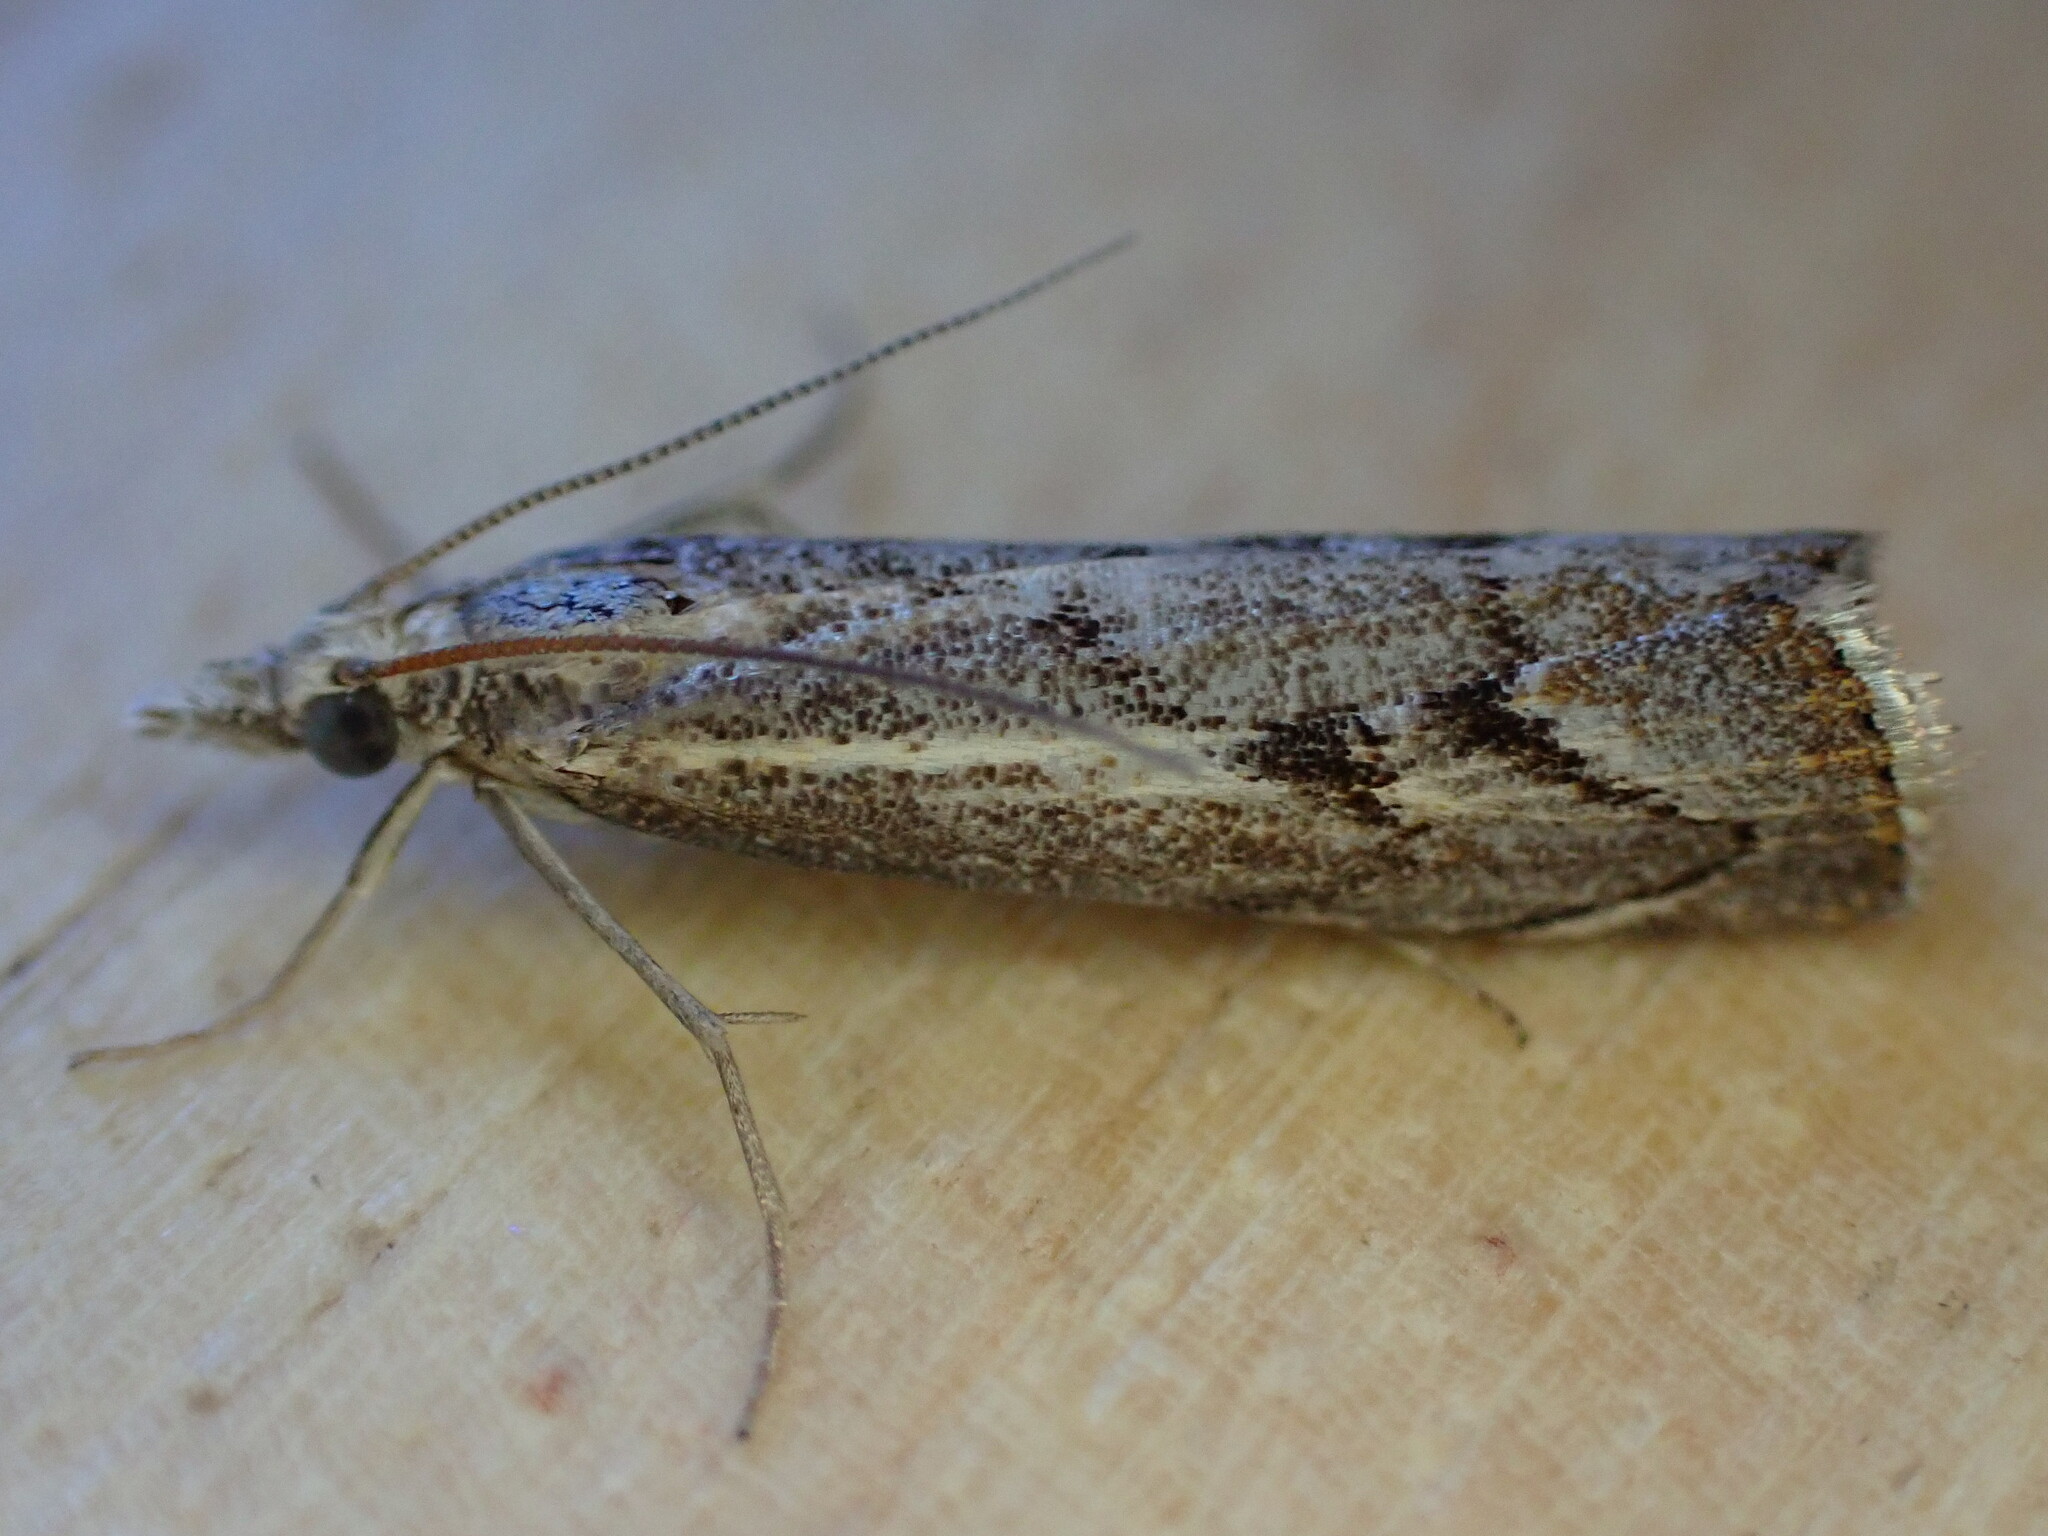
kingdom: Animalia
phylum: Arthropoda
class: Insecta
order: Lepidoptera
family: Crambidae
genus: Agriphila
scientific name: Agriphila geniculea
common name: Elbow-stripe grass-veneer
